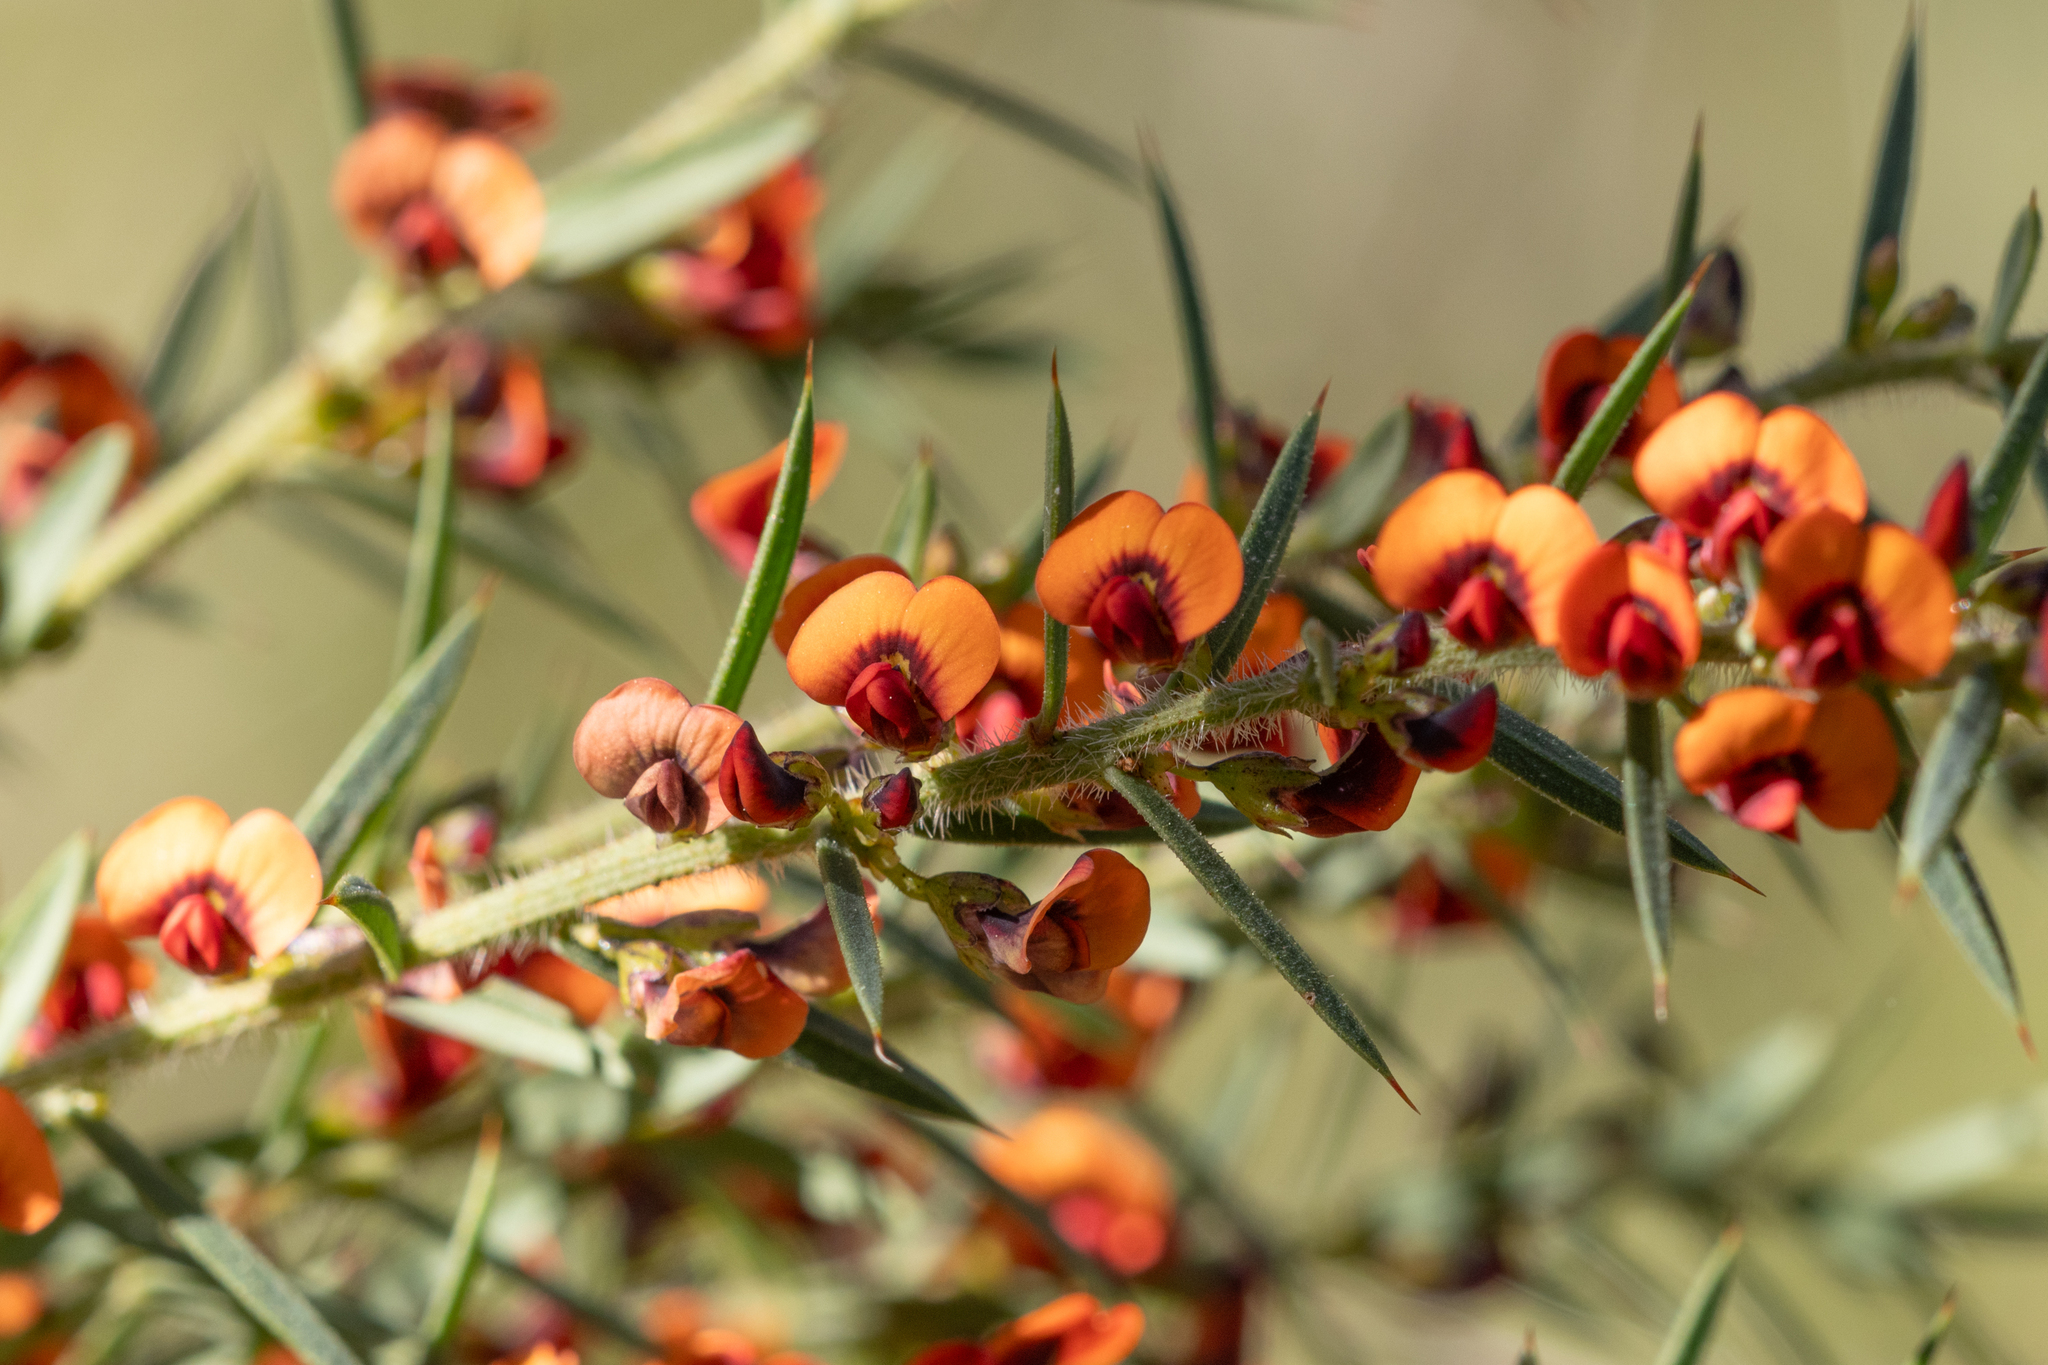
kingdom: Plantae
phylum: Tracheophyta
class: Magnoliopsida
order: Fabales
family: Fabaceae
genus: Daviesia
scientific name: Daviesia ulicifolia
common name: Gorse bitter-pea
